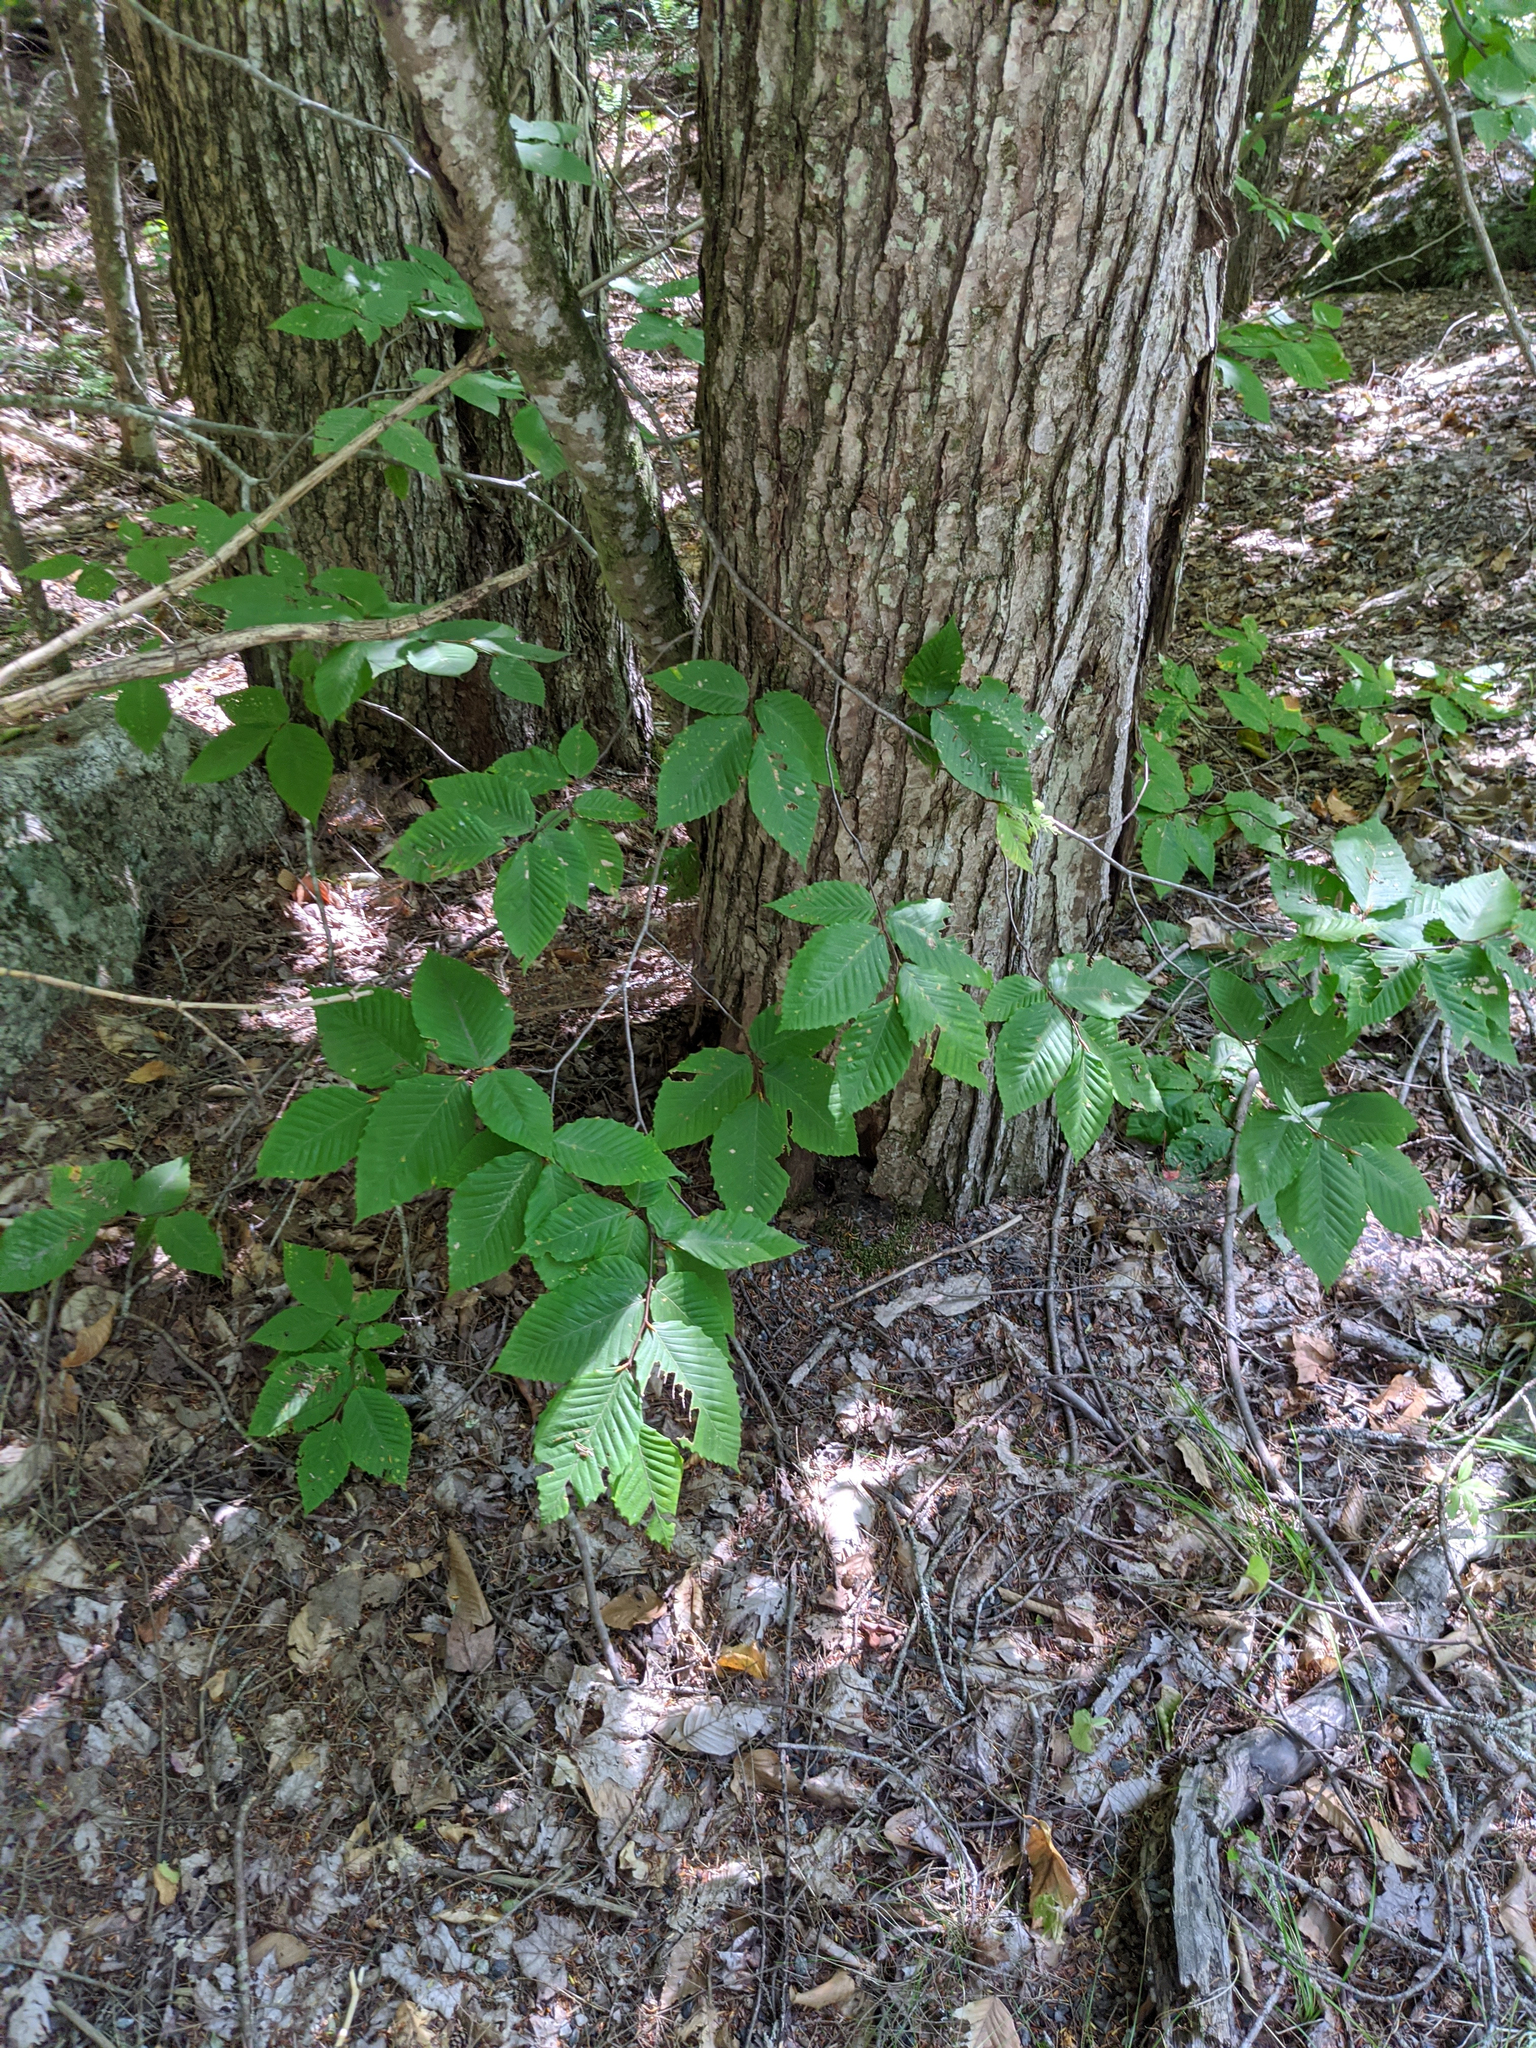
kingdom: Plantae
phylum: Tracheophyta
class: Magnoliopsida
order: Fagales
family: Fagaceae
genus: Fagus
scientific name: Fagus grandifolia
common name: American beech
